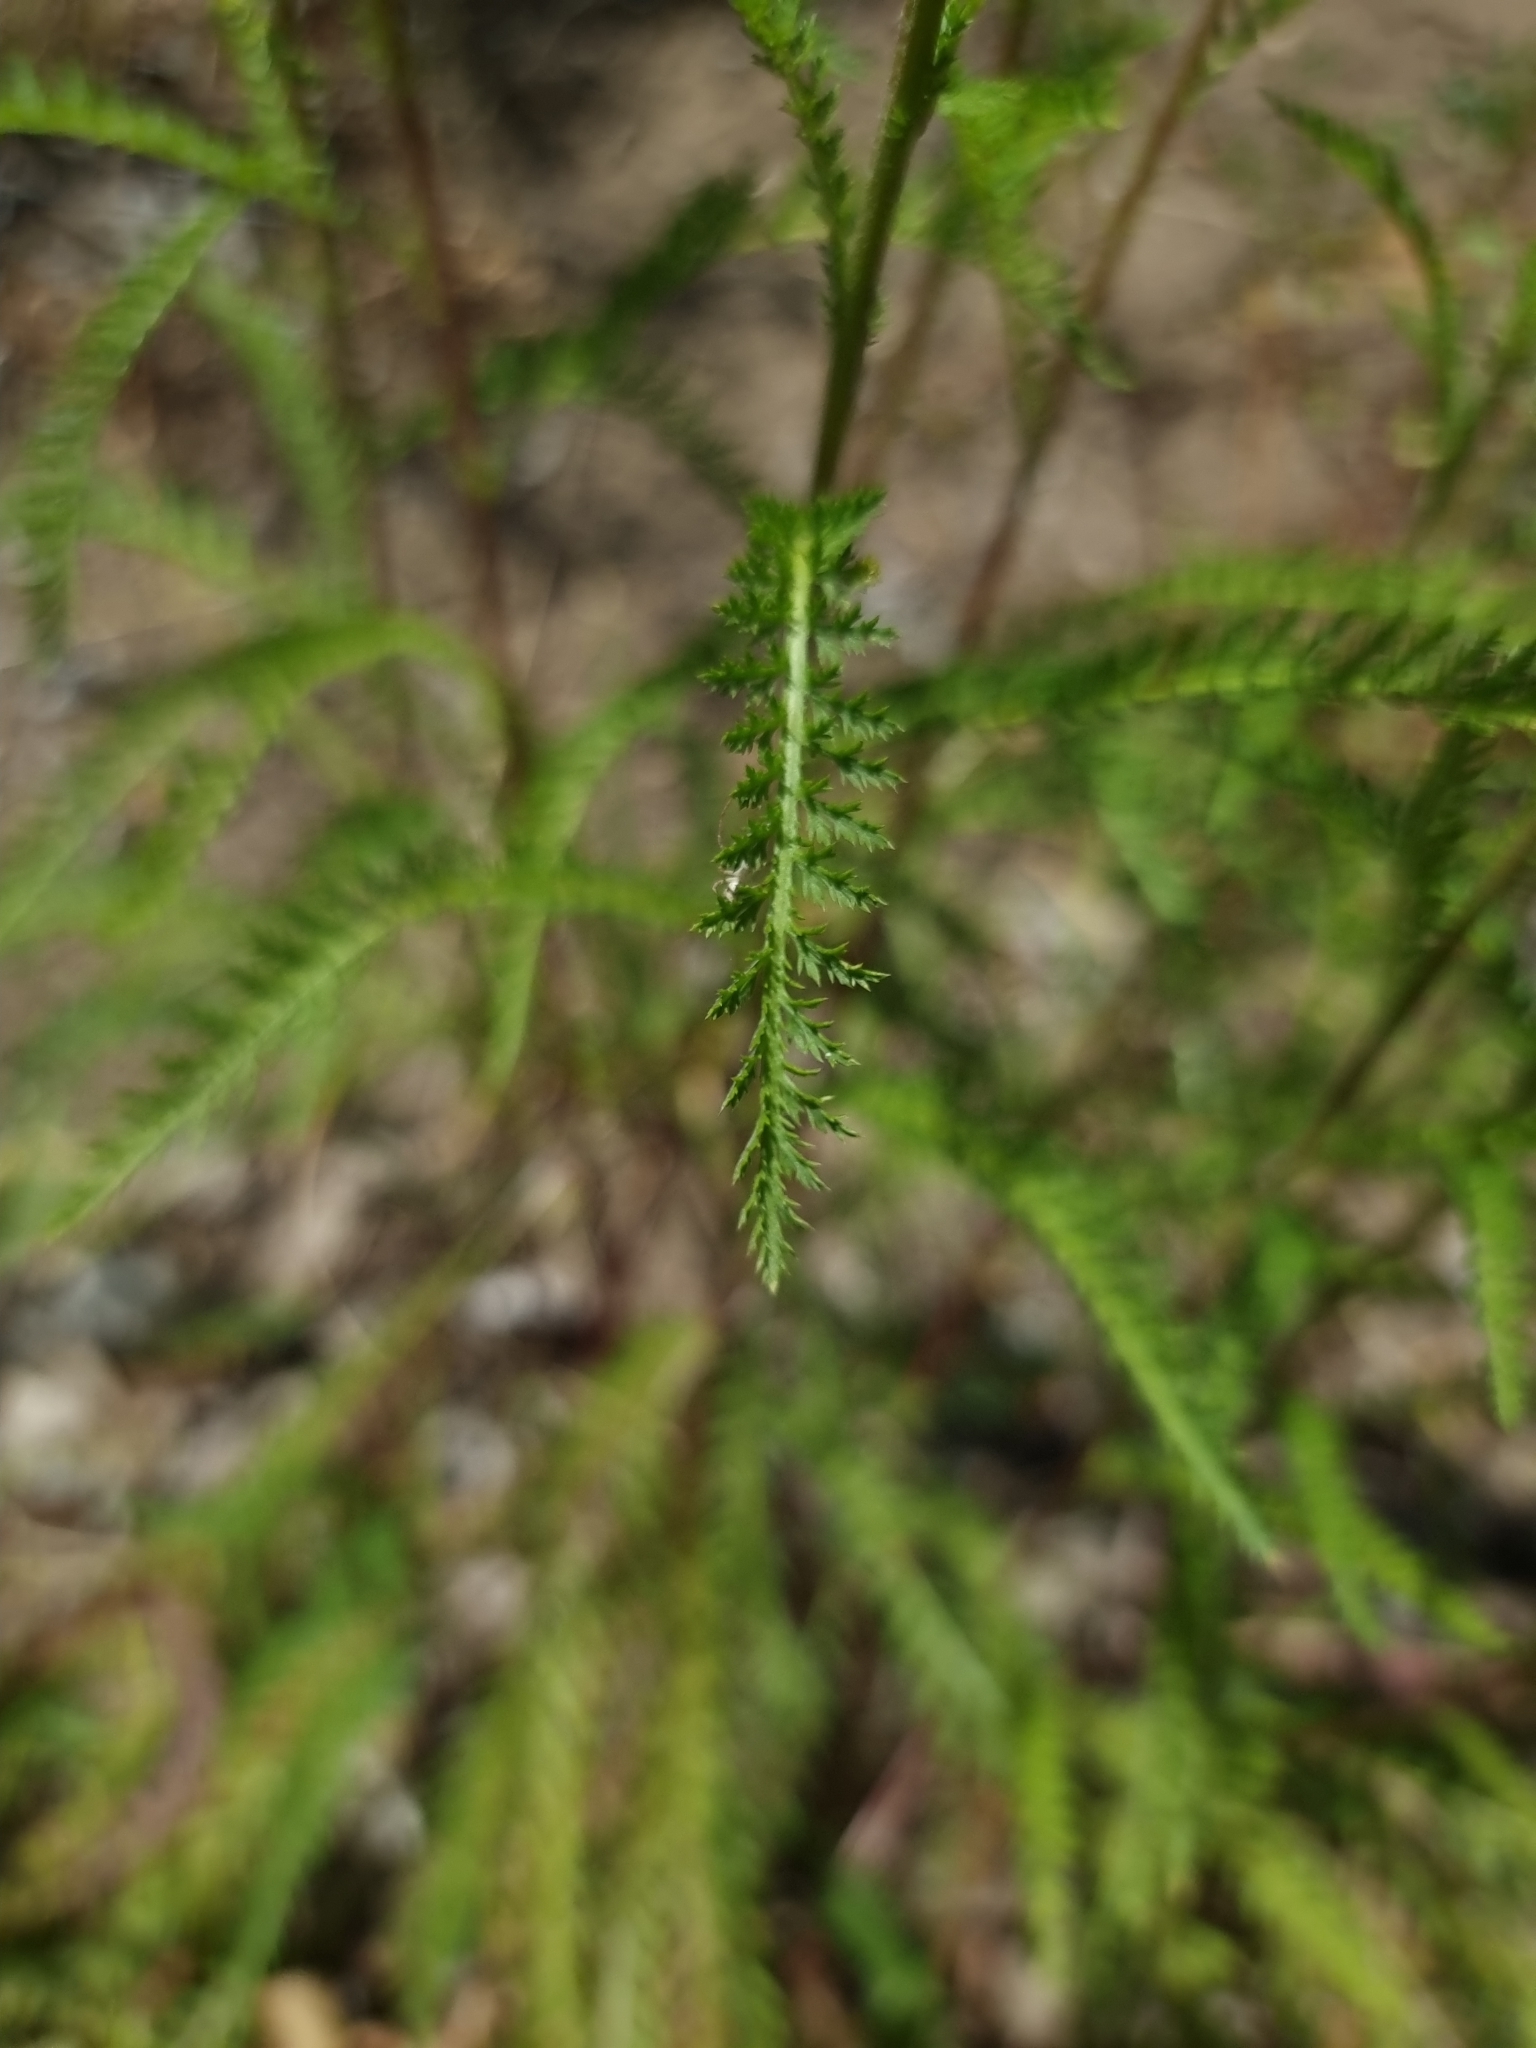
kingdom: Plantae
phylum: Tracheophyta
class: Magnoliopsida
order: Asterales
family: Asteraceae
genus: Achillea
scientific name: Achillea millefolium
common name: Yarrow
